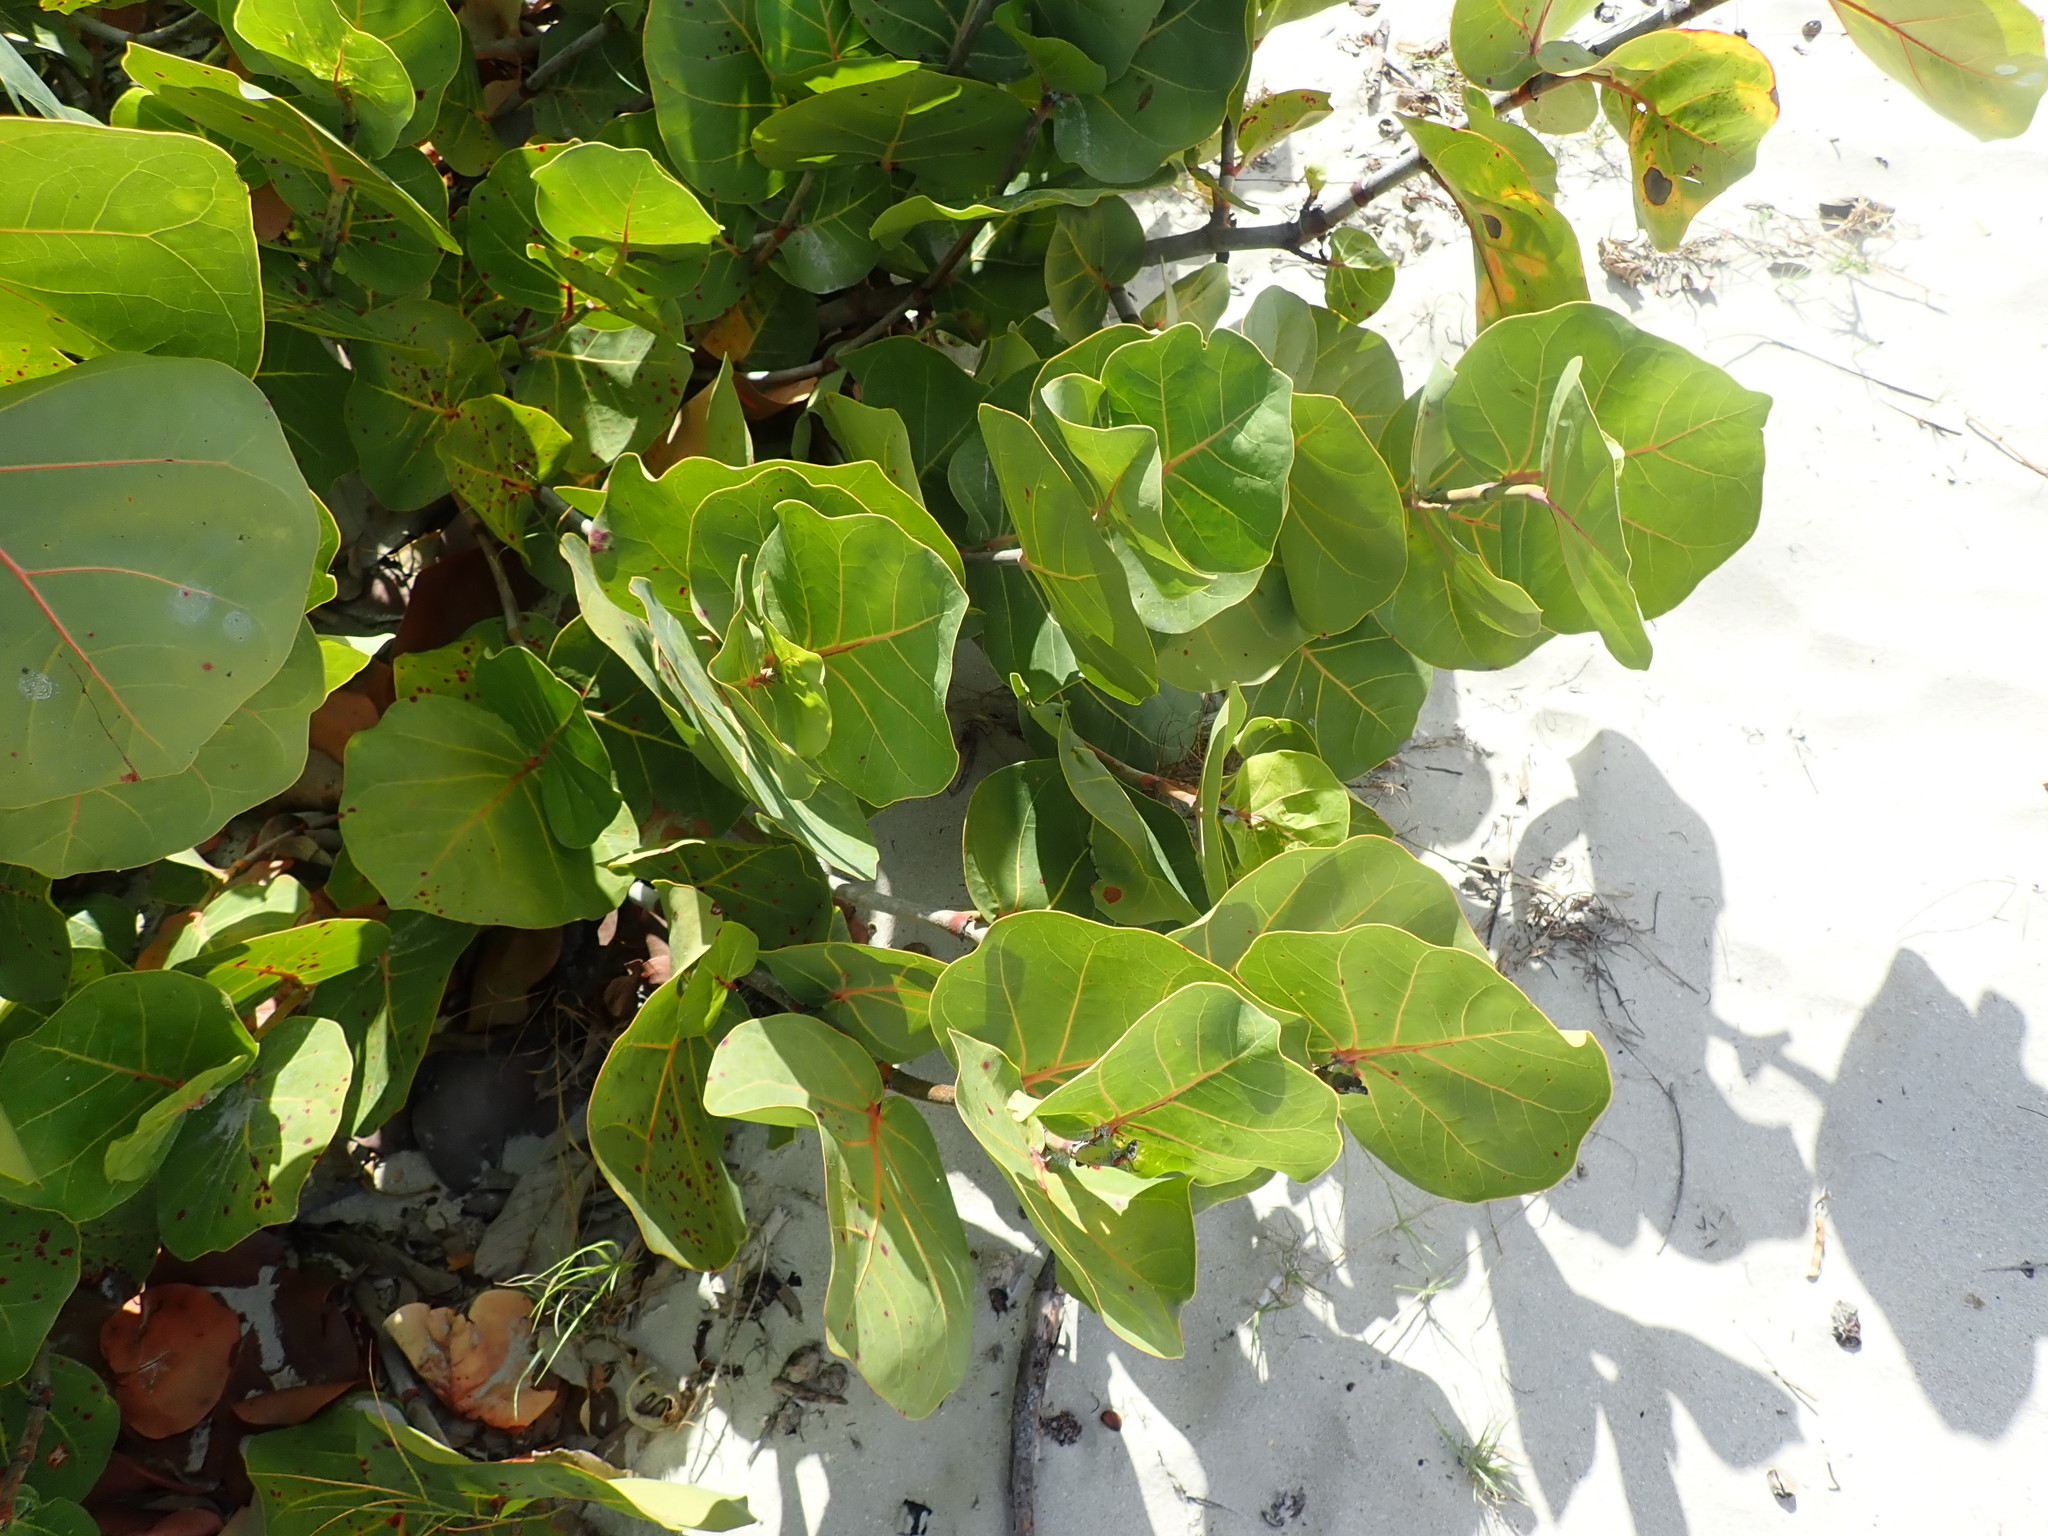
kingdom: Plantae
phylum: Tracheophyta
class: Magnoliopsida
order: Caryophyllales
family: Polygonaceae
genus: Coccoloba
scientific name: Coccoloba uvifera
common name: Seagrape
